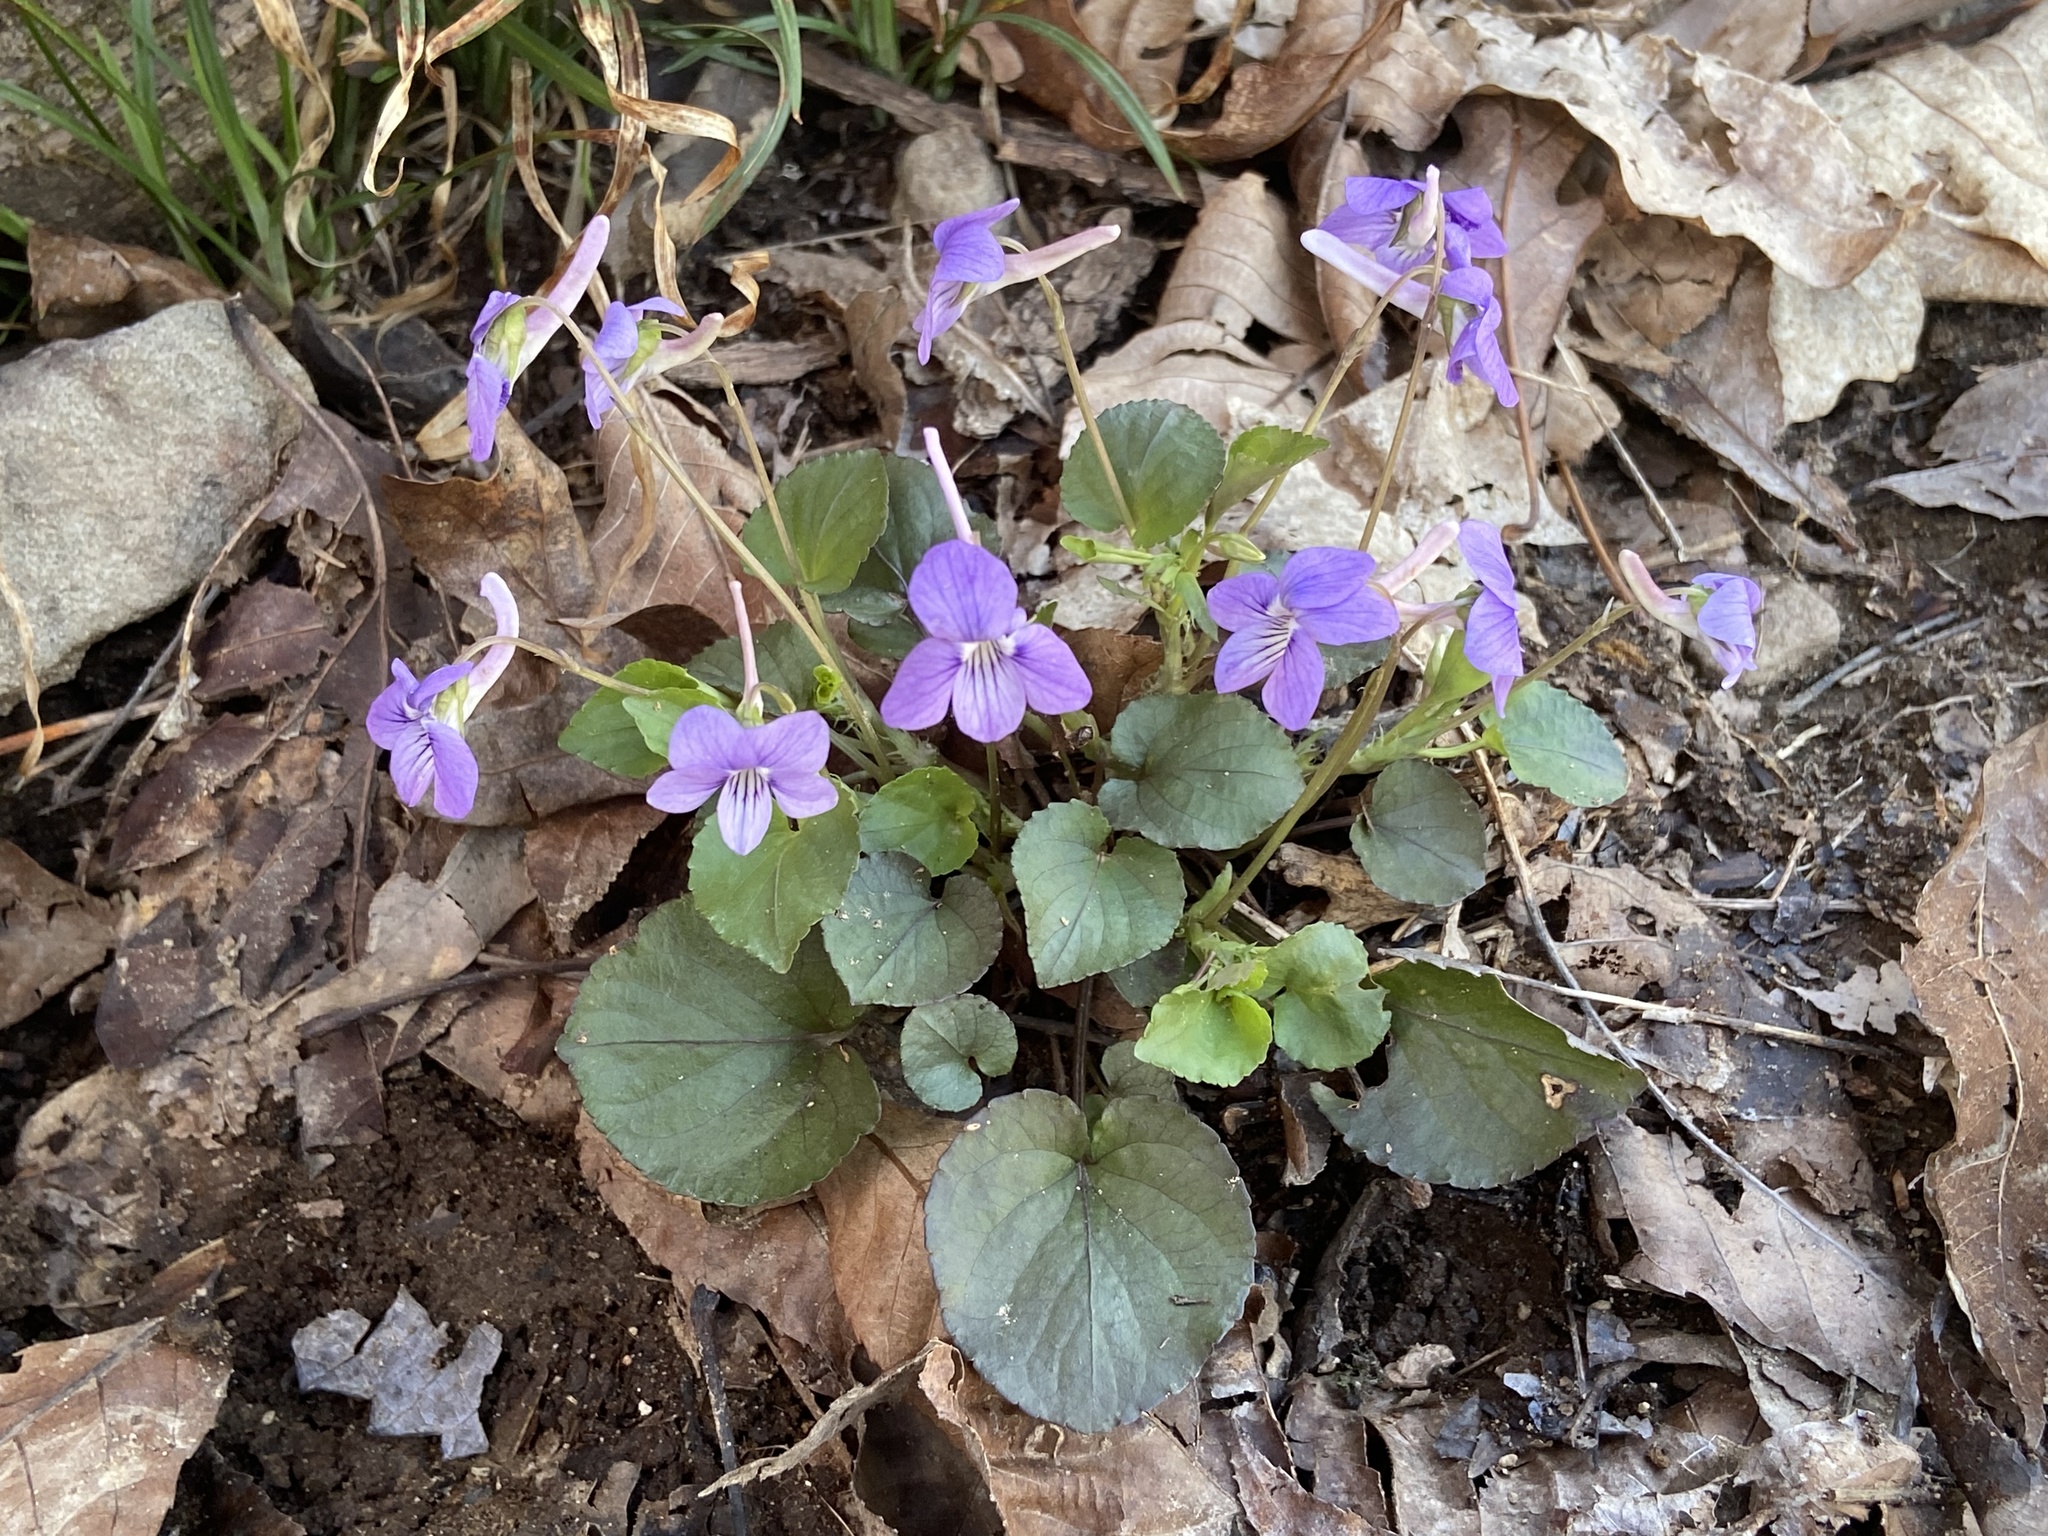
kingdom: Plantae
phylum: Tracheophyta
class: Magnoliopsida
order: Malpighiales
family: Violaceae
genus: Viola
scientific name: Viola rostrata
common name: Long-spur violet
